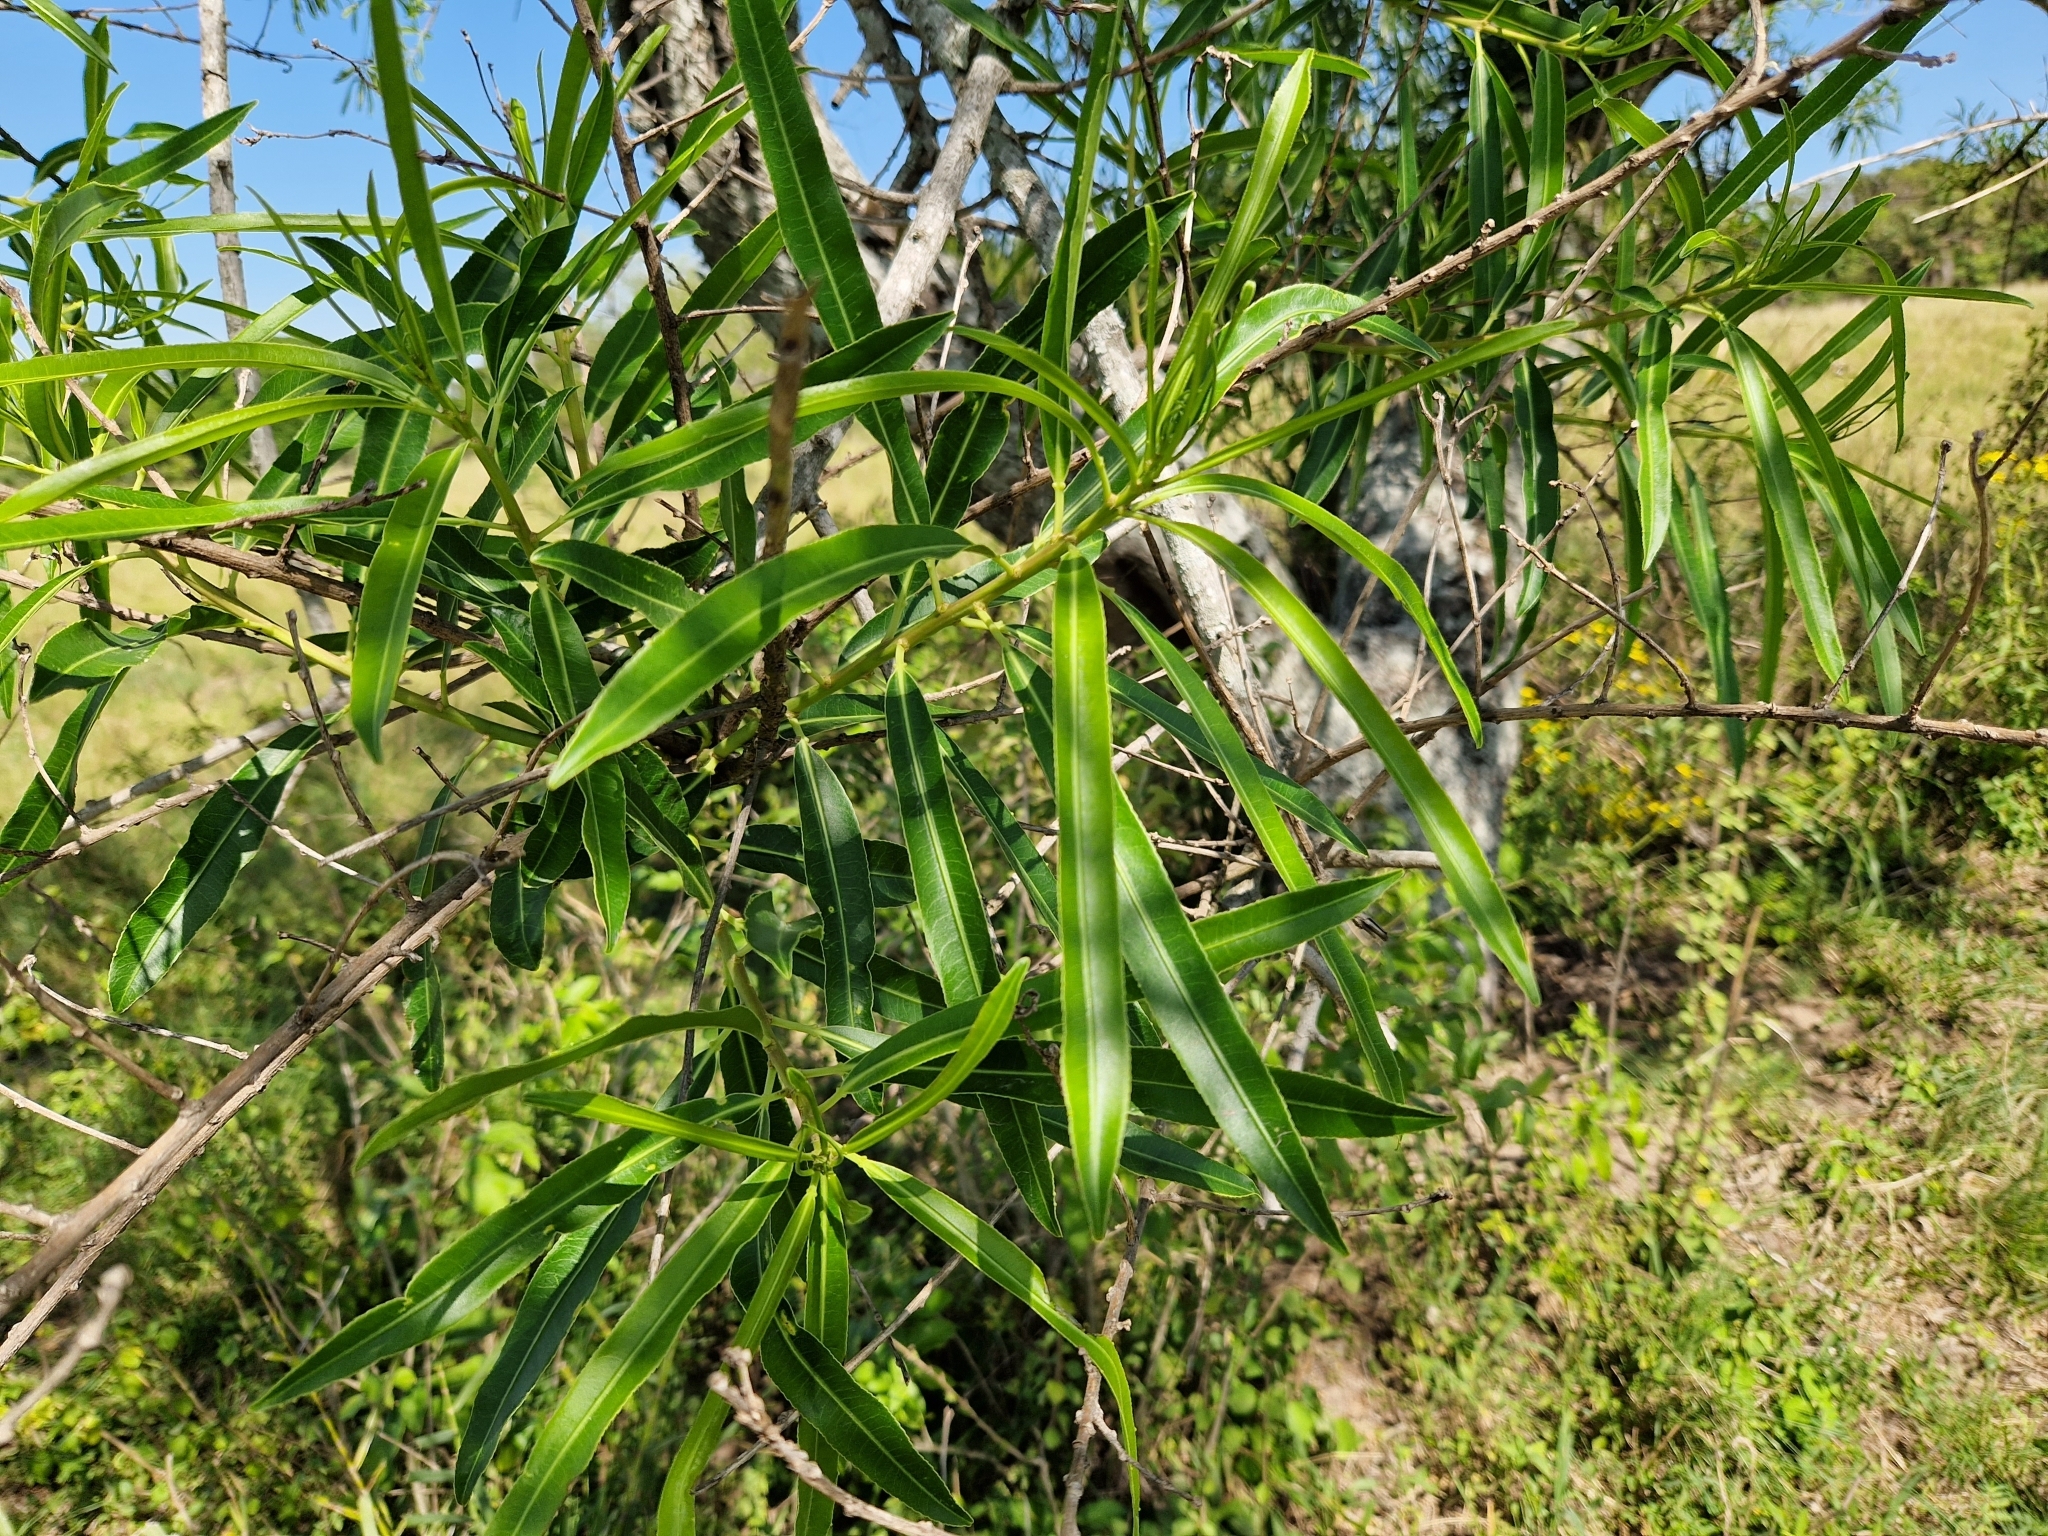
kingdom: Plantae
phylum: Tracheophyta
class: Magnoliopsida
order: Malpighiales
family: Euphorbiaceae
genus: Sapium
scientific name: Sapium haematospermum
